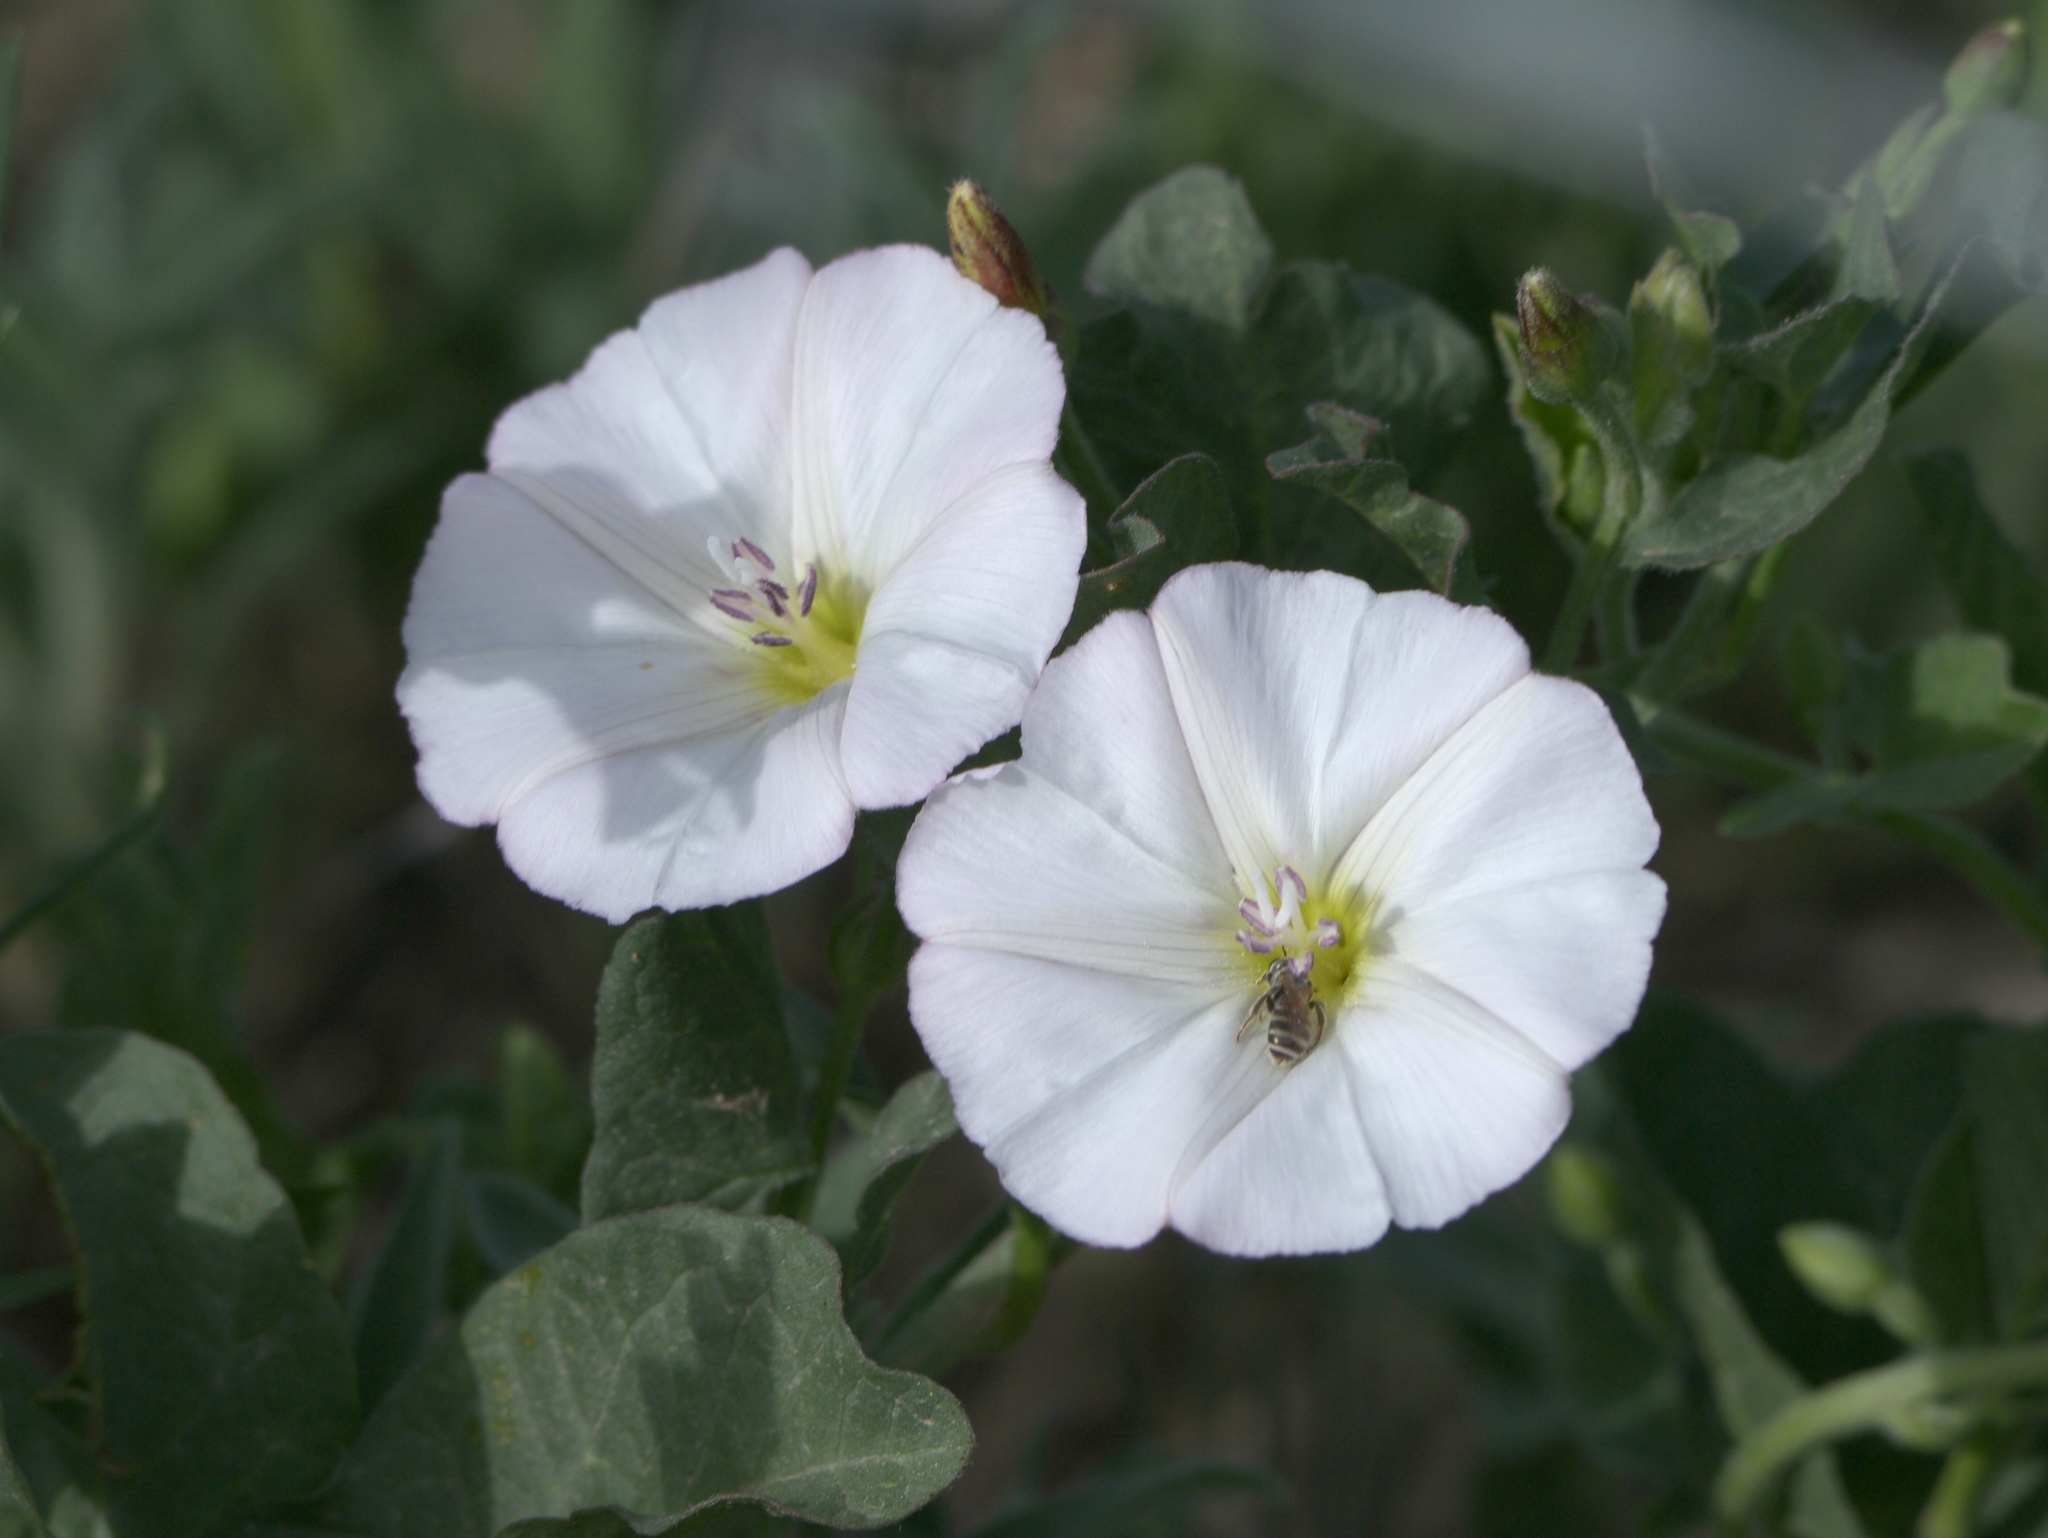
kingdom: Plantae
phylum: Tracheophyta
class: Magnoliopsida
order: Solanales
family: Convolvulaceae
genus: Convolvulus
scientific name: Convolvulus arvensis
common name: Field bindweed
